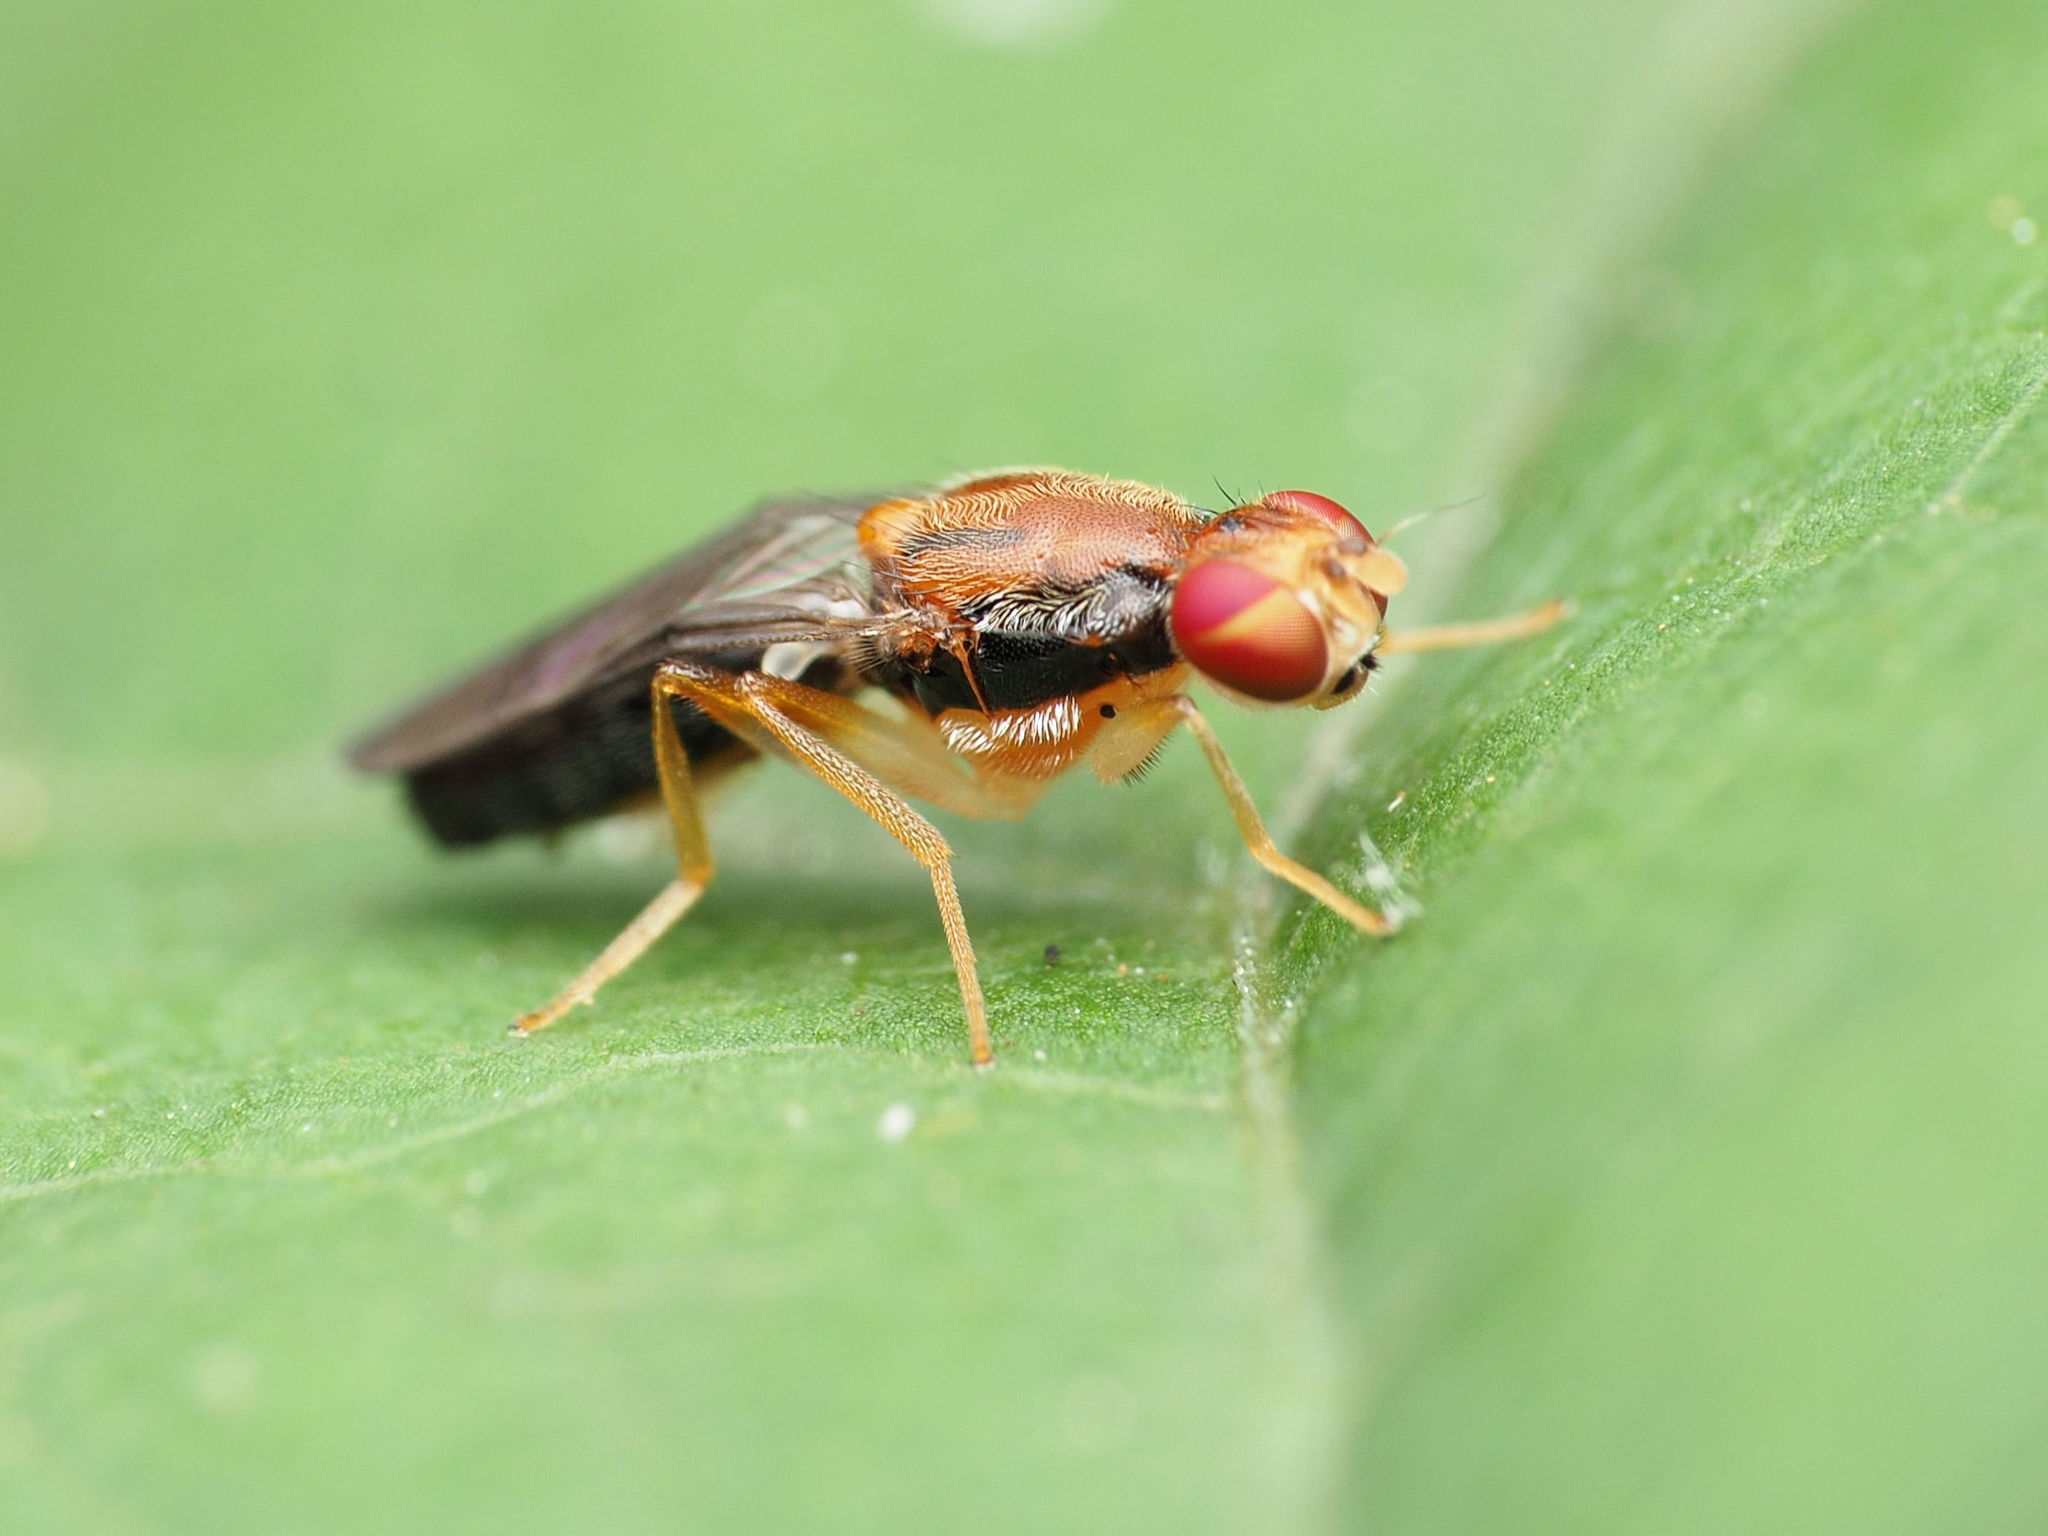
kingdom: Animalia
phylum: Arthropoda
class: Insecta
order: Diptera
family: Psilidae
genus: Chyliza
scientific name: Chyliza apicalis
